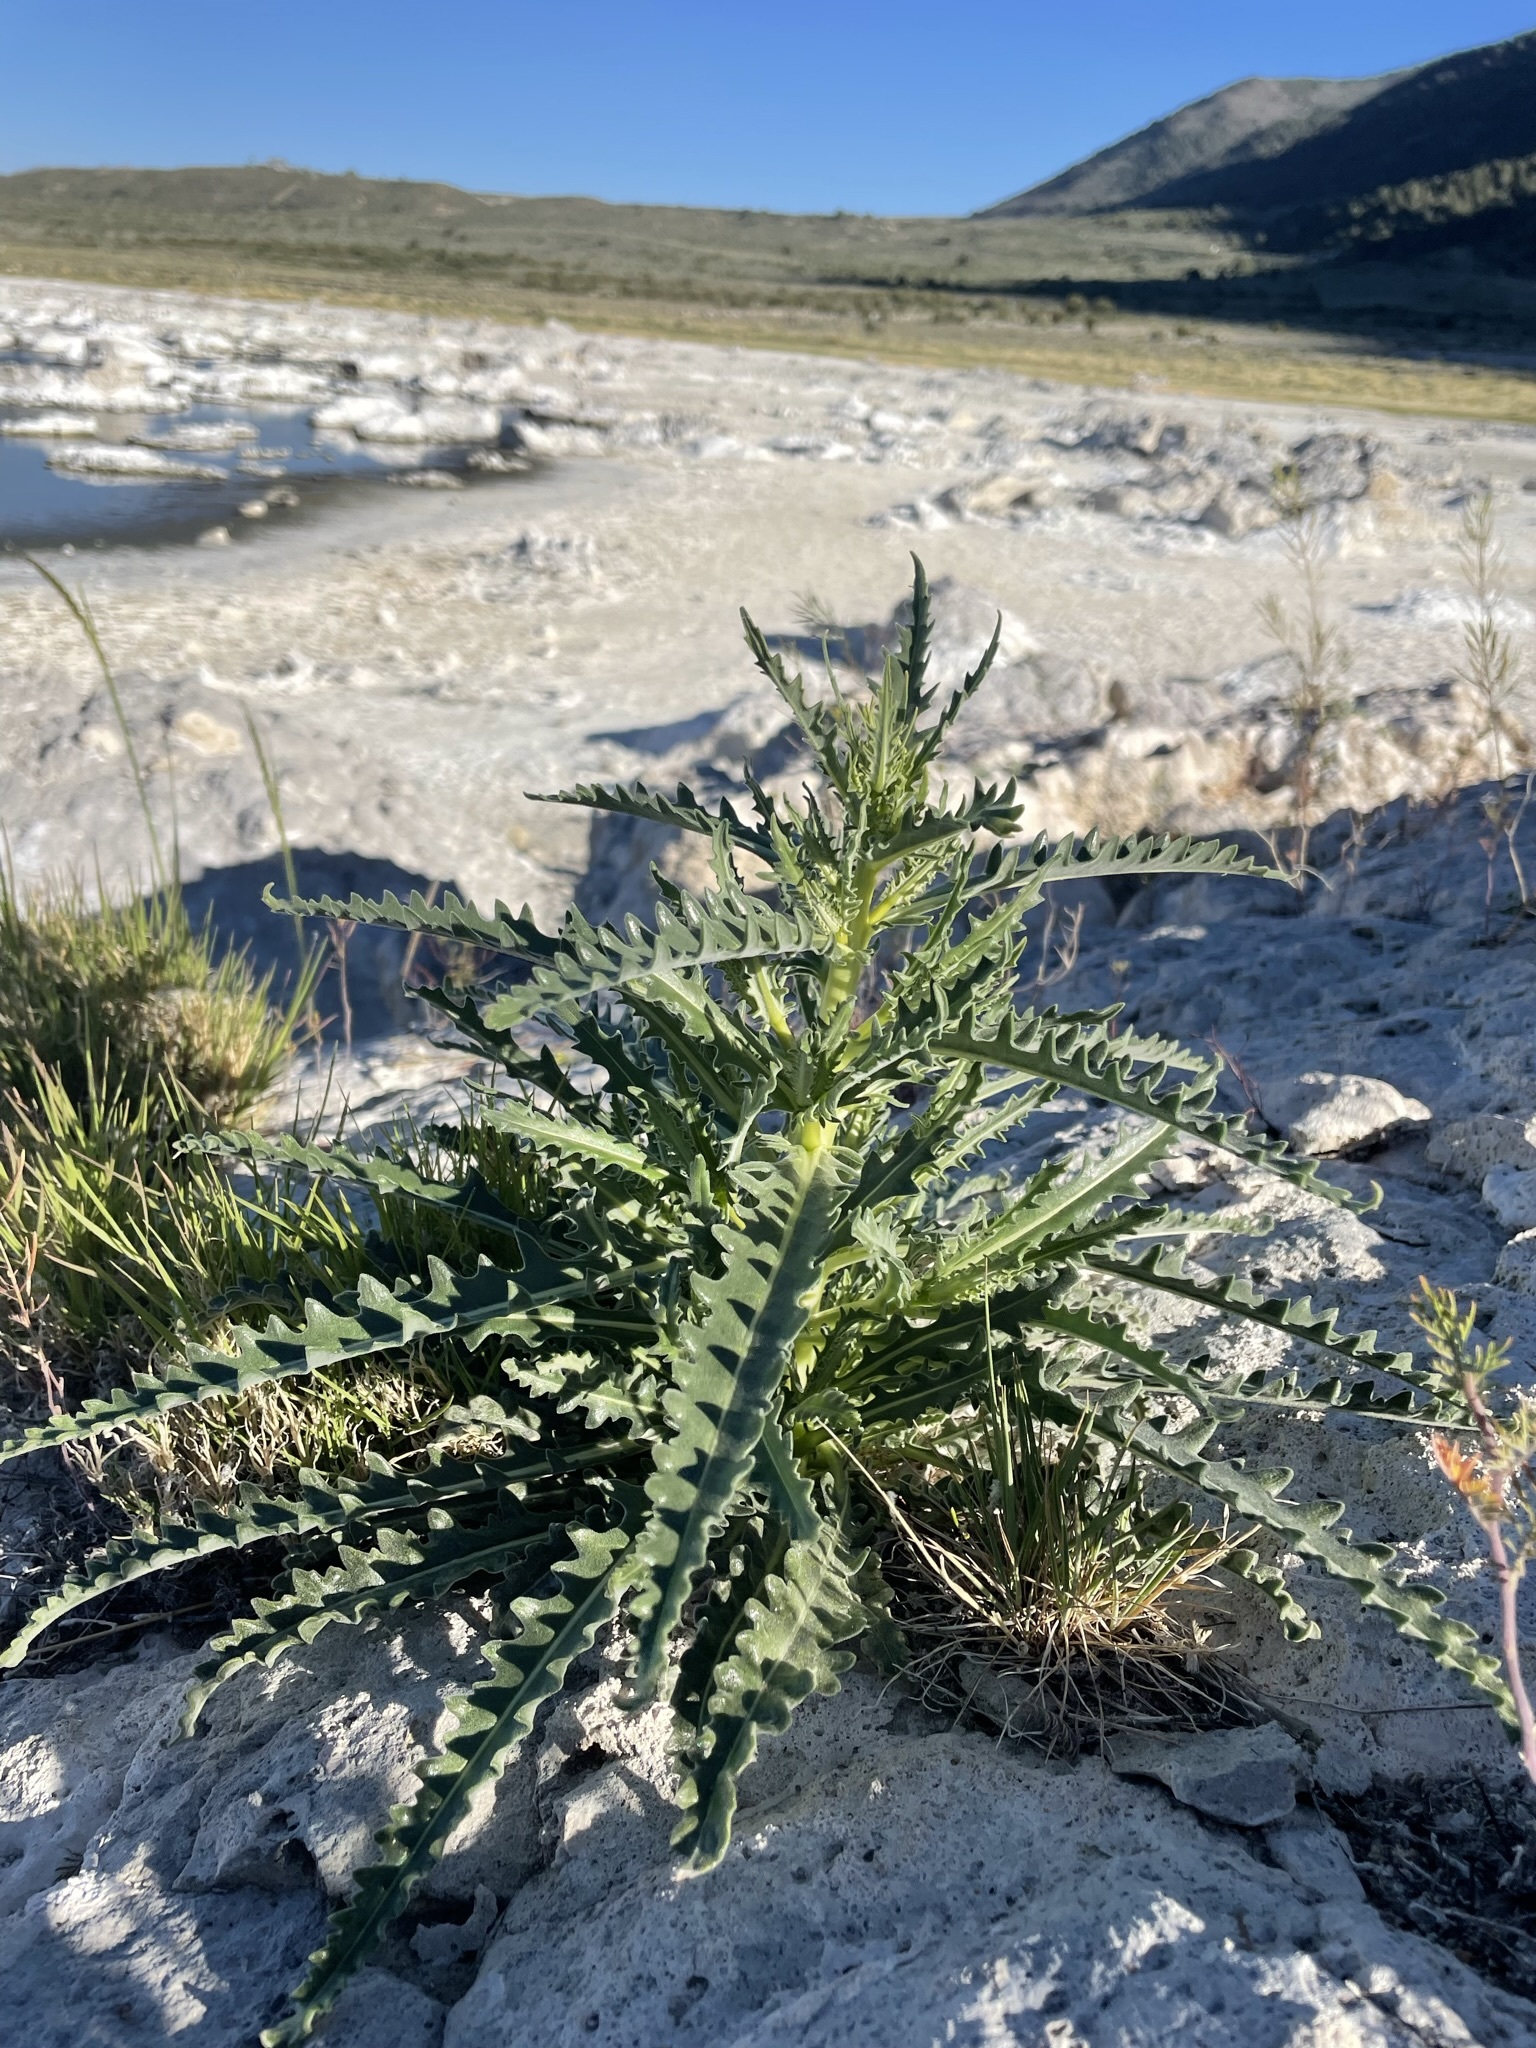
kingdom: Plantae
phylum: Tracheophyta
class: Magnoliopsida
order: Cornales
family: Loasaceae
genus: Mentzelia
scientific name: Mentzelia laevicaulis
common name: Smooth-stem blazingstar
